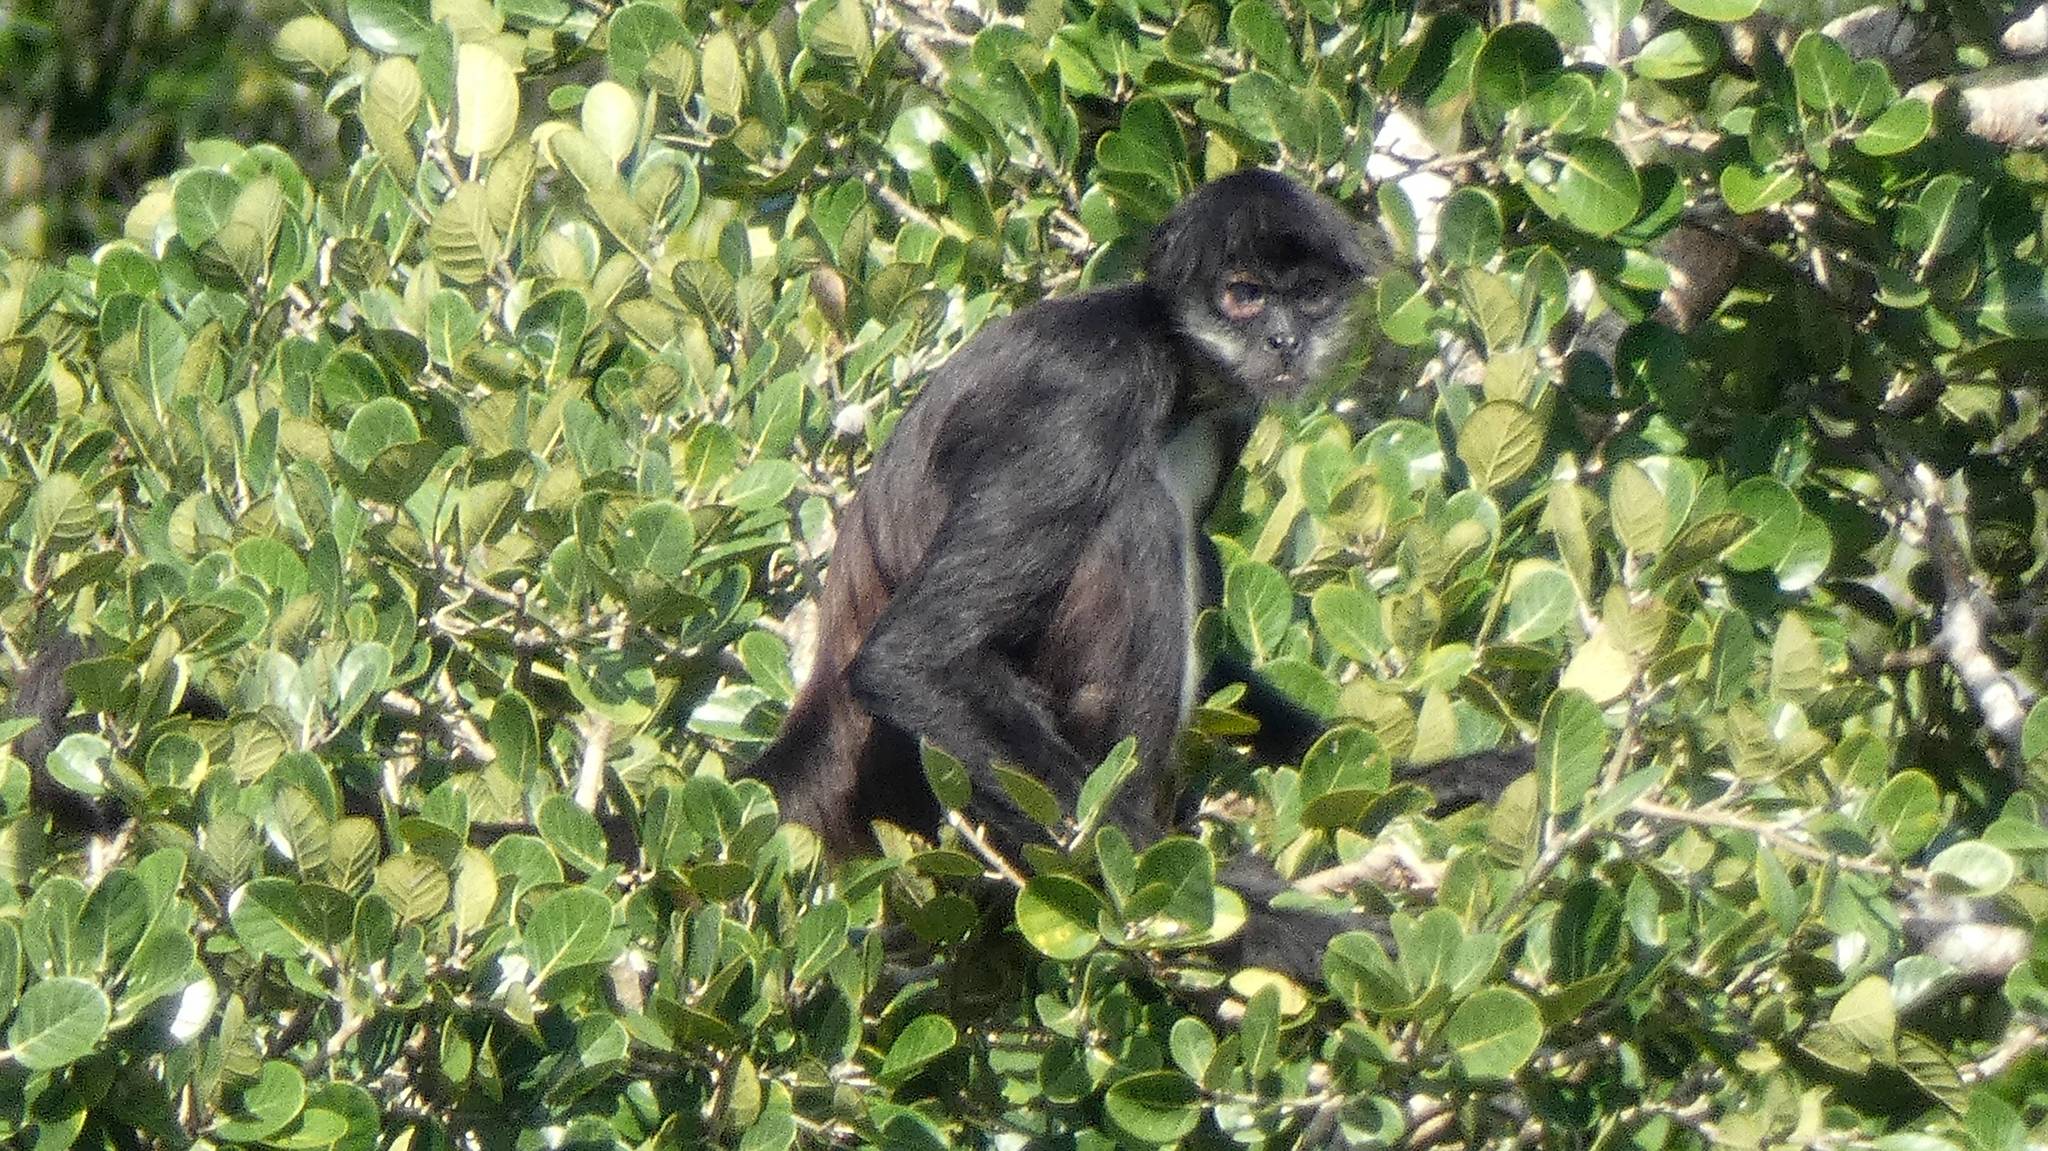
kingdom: Animalia
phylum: Chordata
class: Mammalia
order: Primates
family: Atelidae
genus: Ateles
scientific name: Ateles geoffroyi
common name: Black-handed spider monkey
